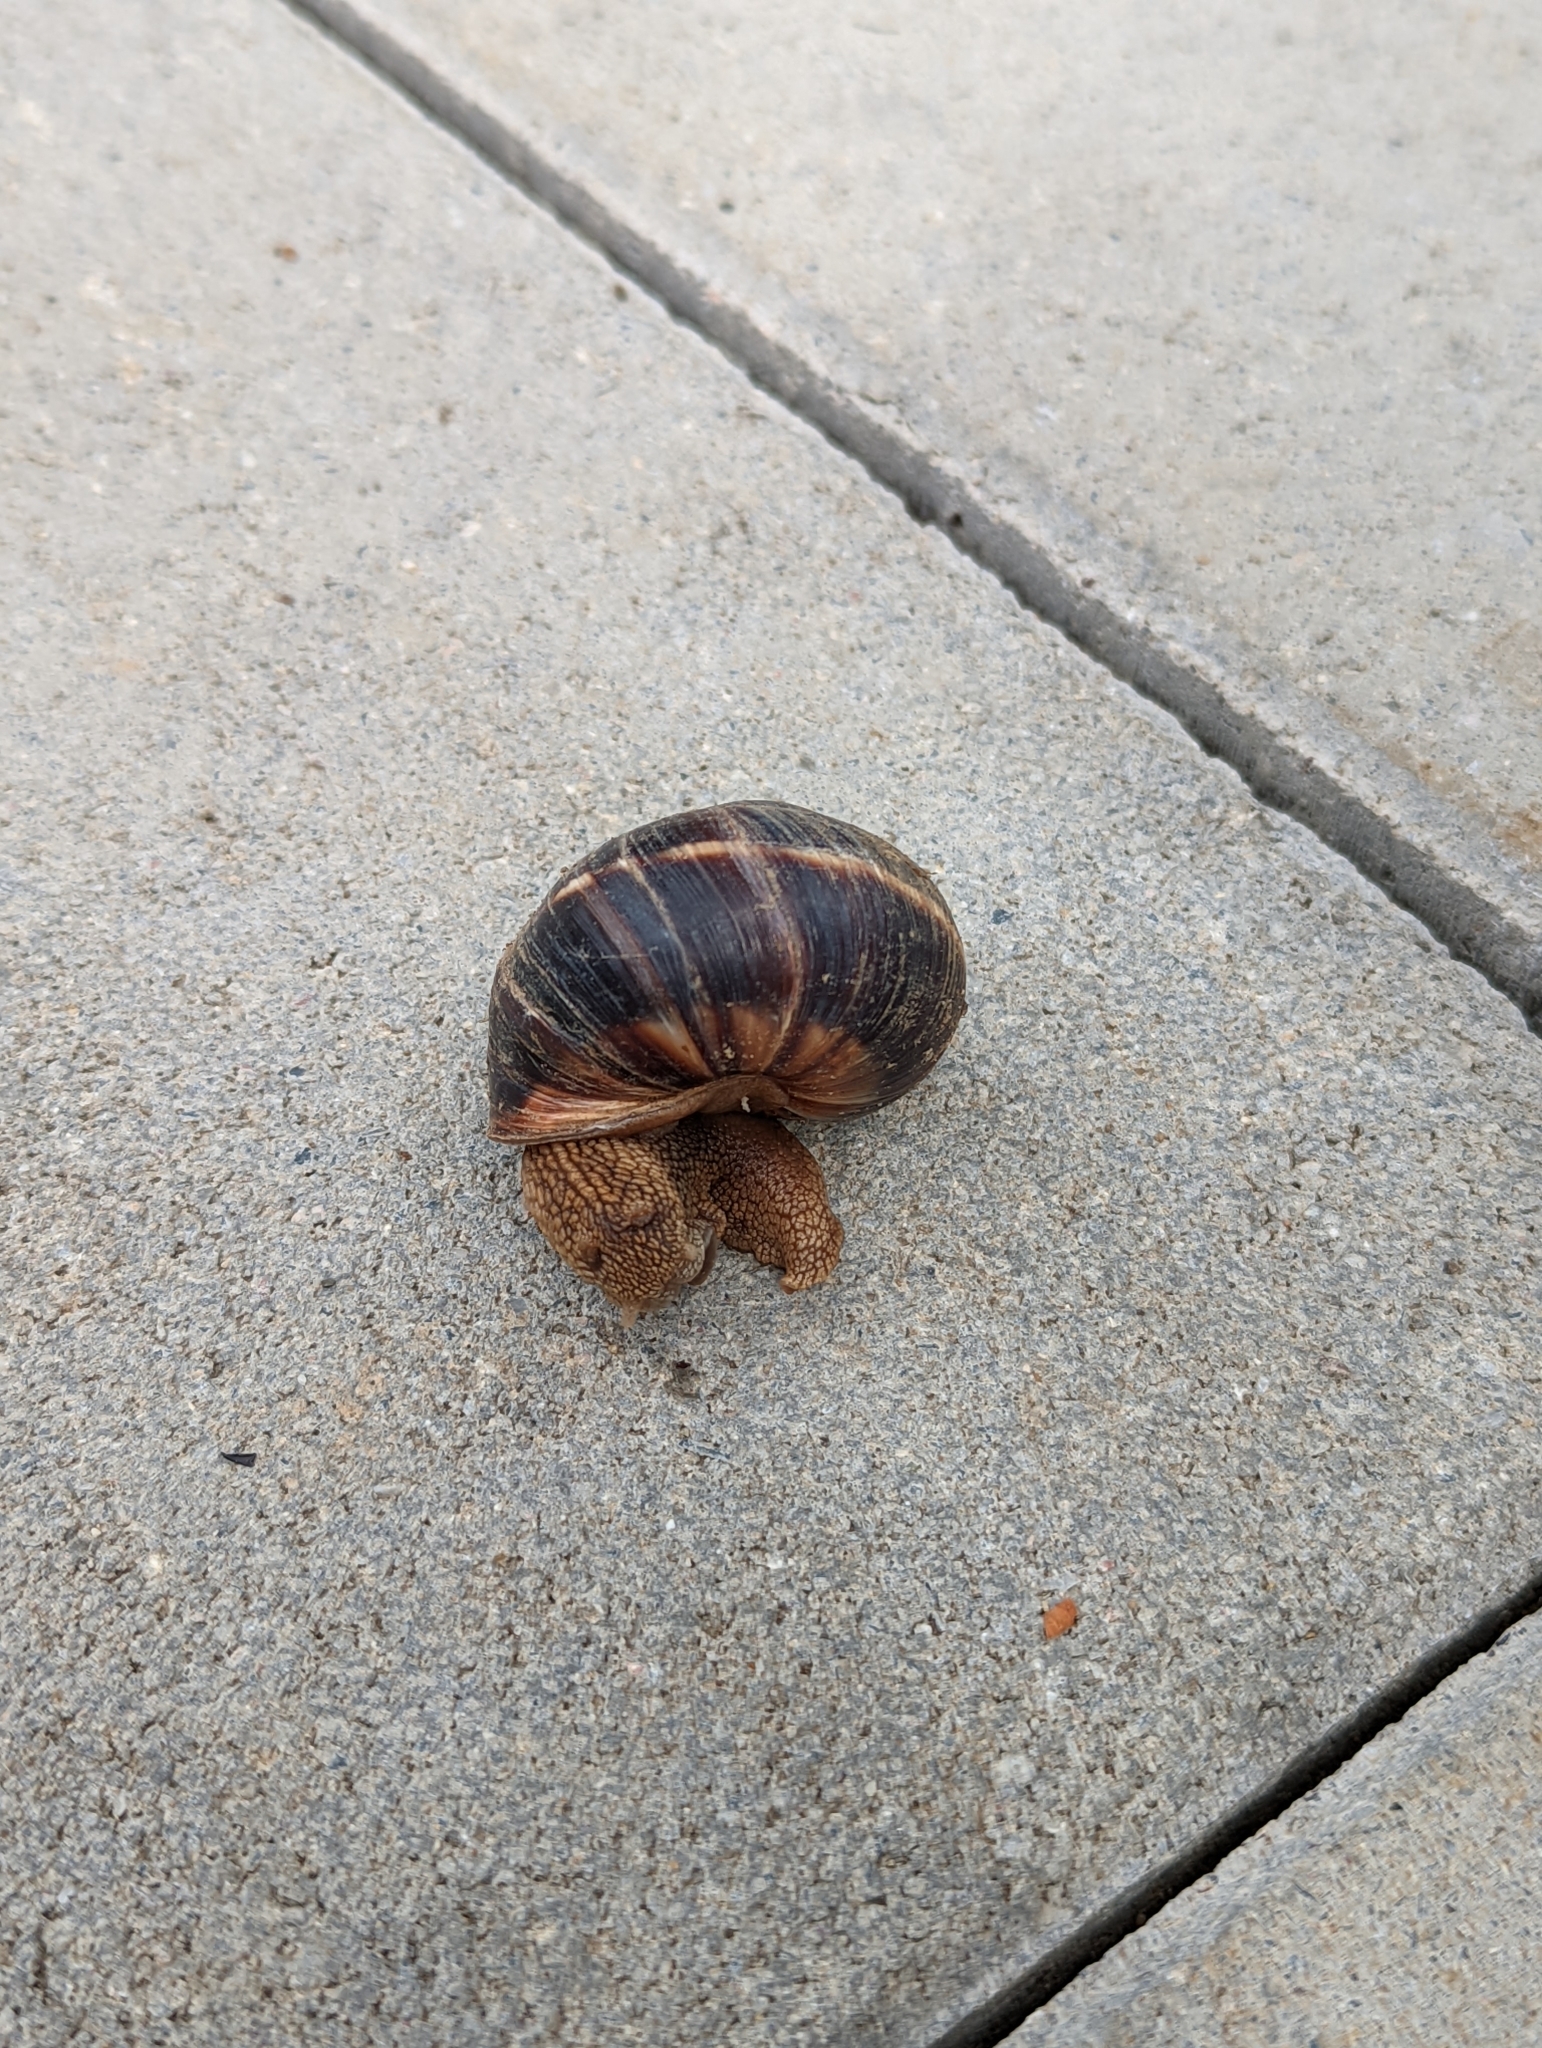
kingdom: Animalia
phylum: Mollusca
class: Gastropoda
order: Stylommatophora
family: Helicidae
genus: Helix
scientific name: Helix lucorum
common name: Turkish snail
